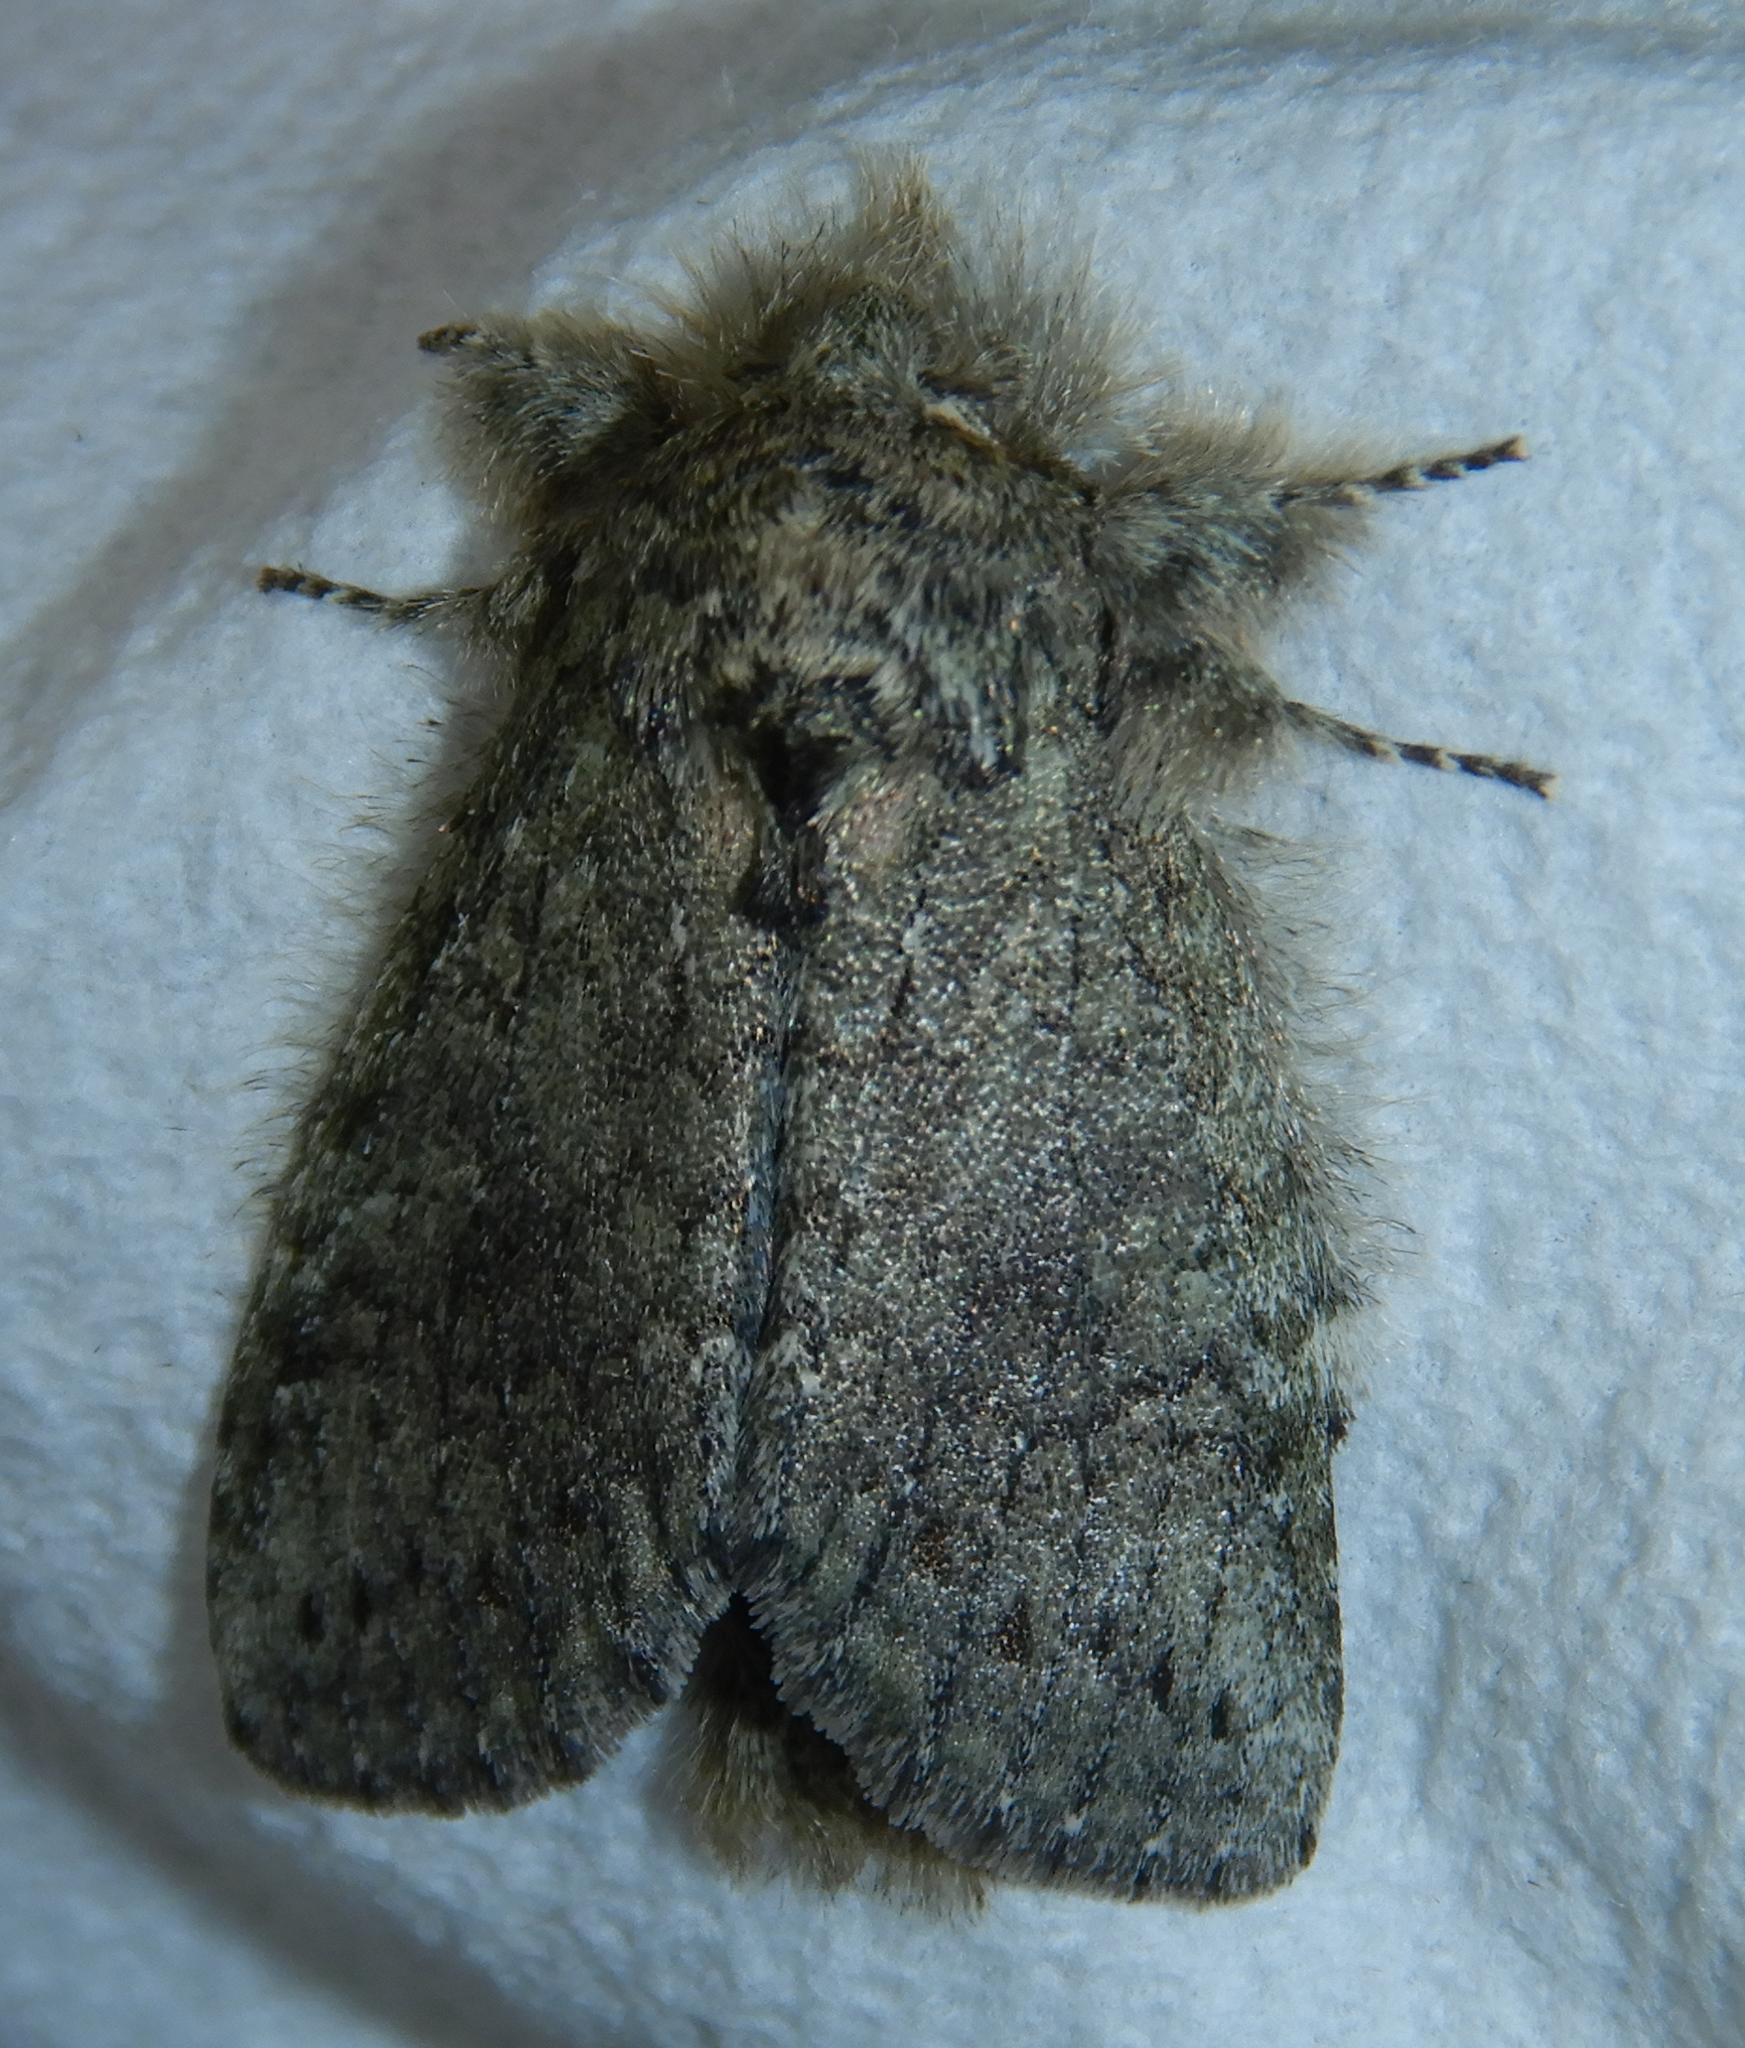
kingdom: Animalia
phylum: Arthropoda
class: Insecta
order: Lepidoptera
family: Notodontidae
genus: Disphragis
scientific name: Disphragis Cecrita guttivitta
